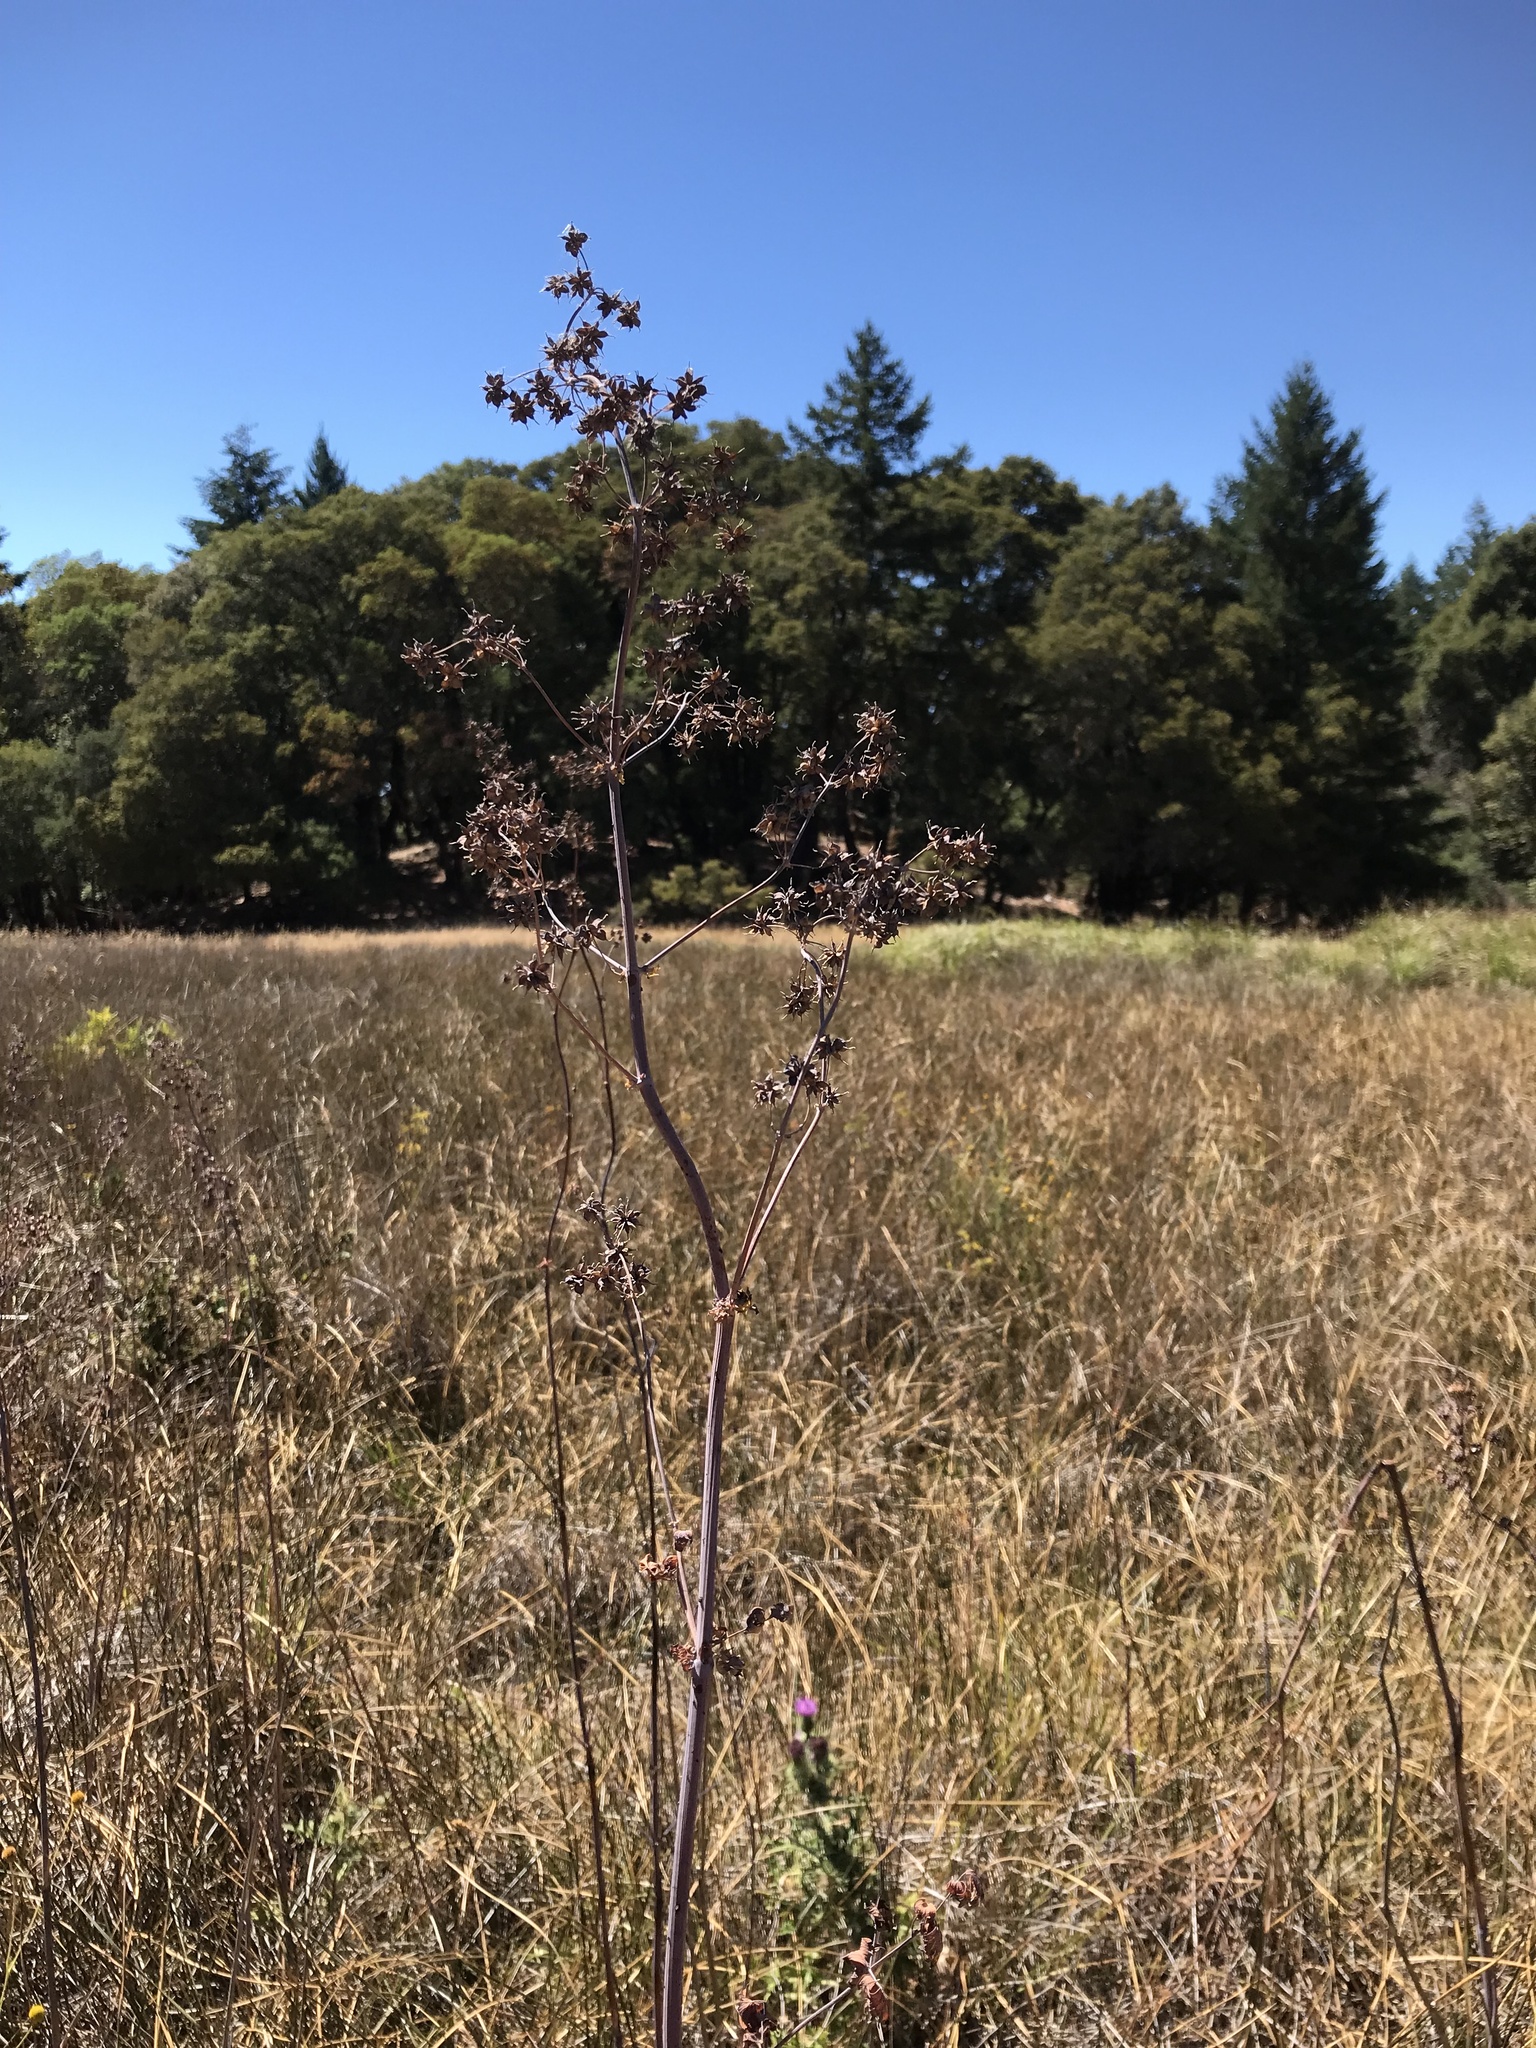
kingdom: Plantae
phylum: Tracheophyta
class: Magnoliopsida
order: Ranunculales
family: Ranunculaceae
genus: Thalictrum
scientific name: Thalictrum fendleri
